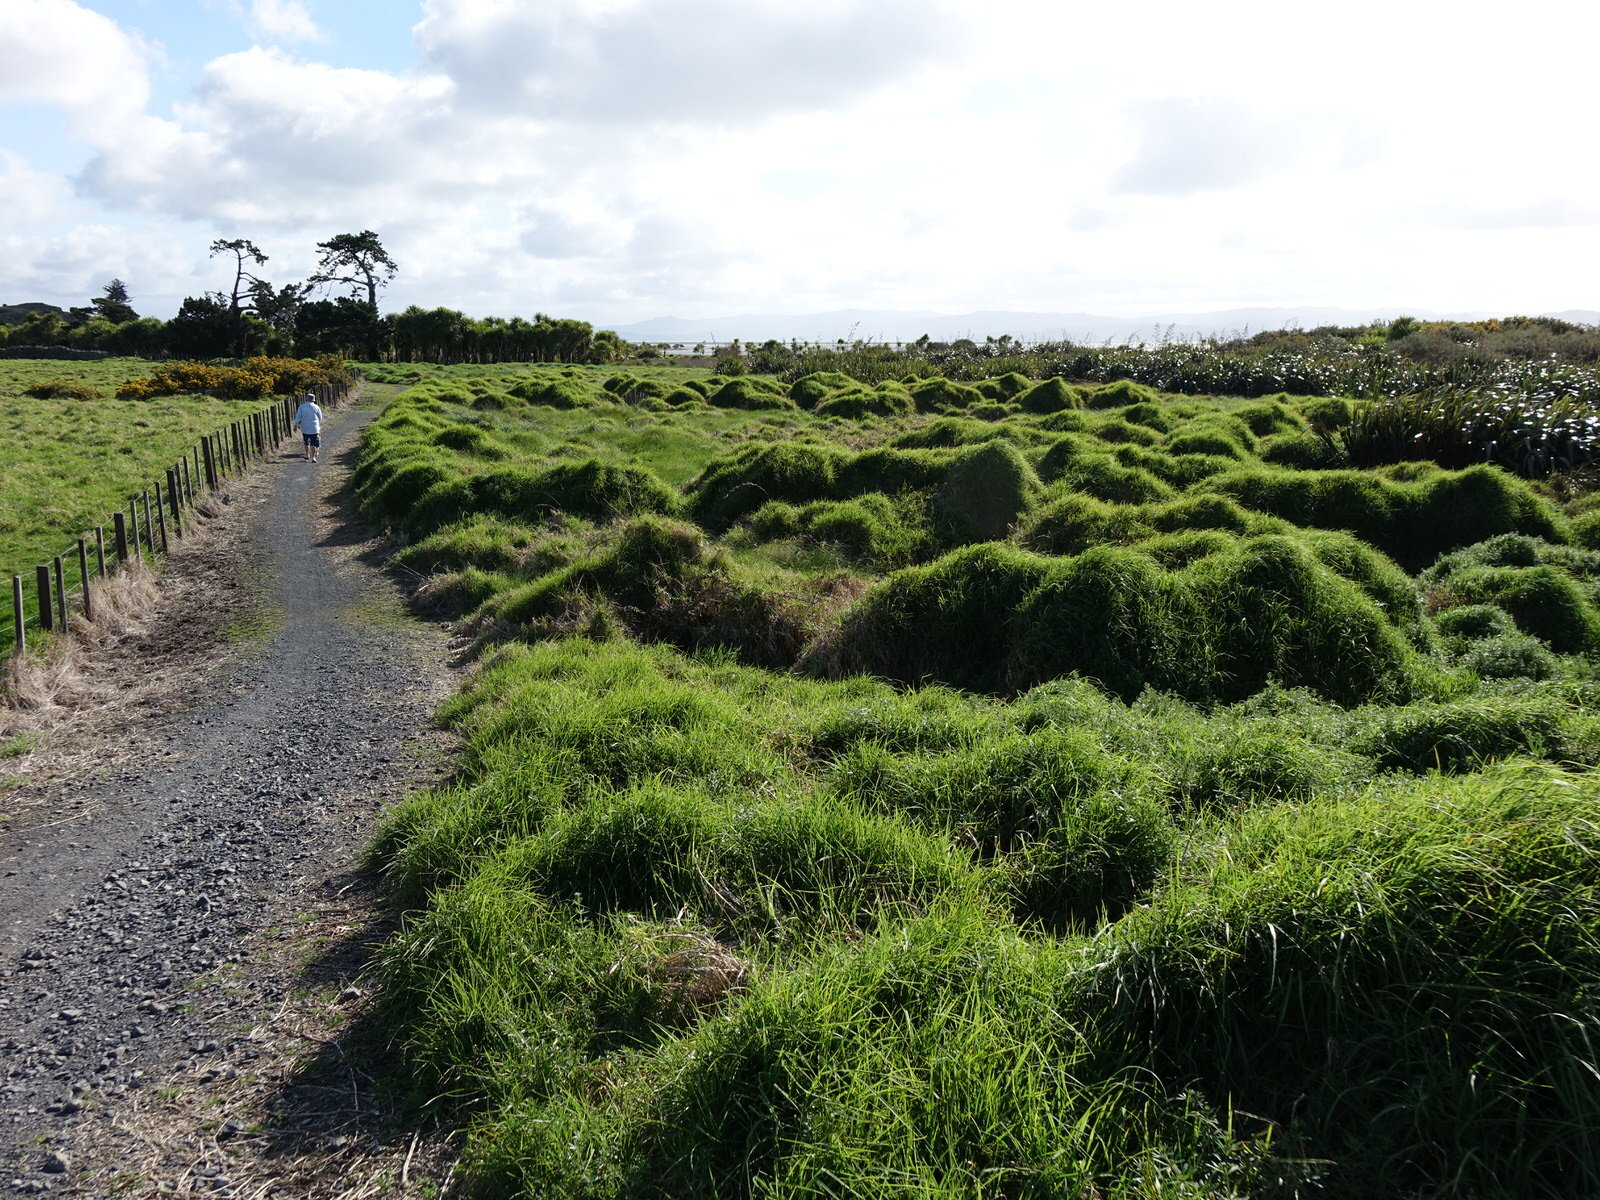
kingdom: Plantae
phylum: Tracheophyta
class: Liliopsida
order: Poales
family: Poaceae
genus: Cenchrus
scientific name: Cenchrus clandestinus
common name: Kikuyugrass
